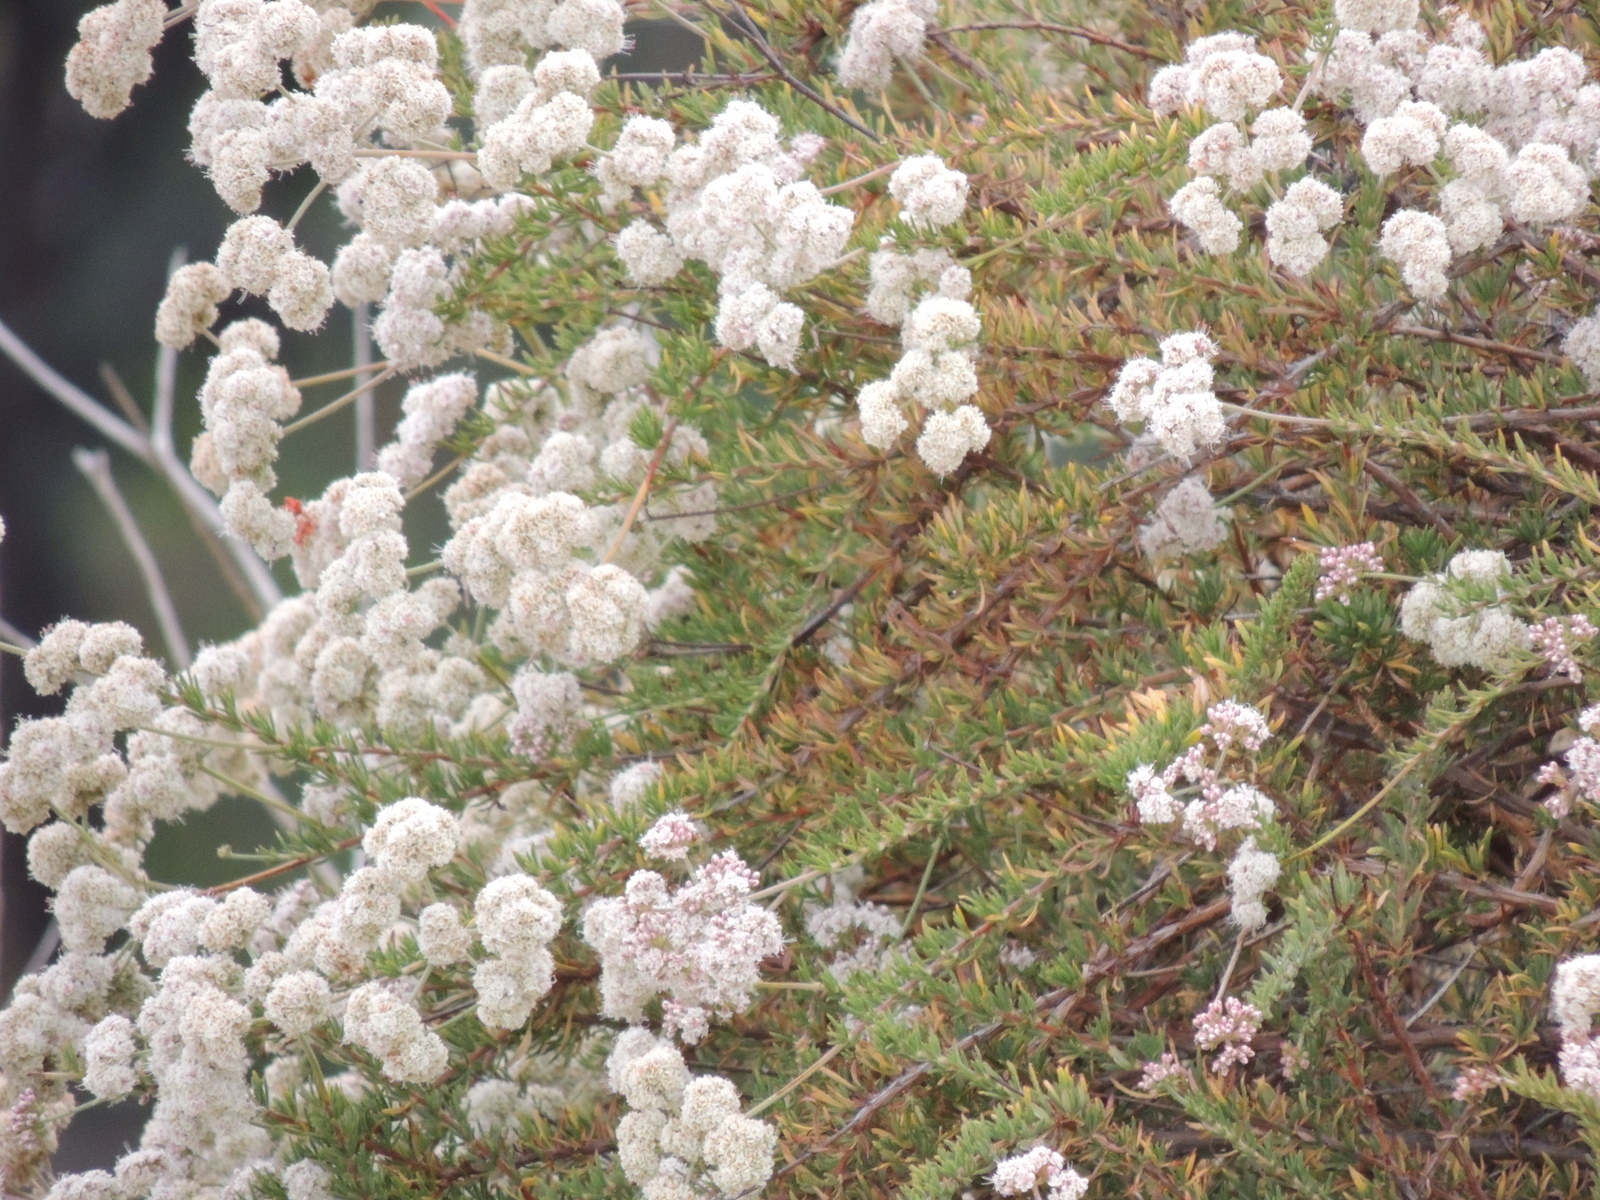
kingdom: Plantae
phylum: Tracheophyta
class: Magnoliopsida
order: Caryophyllales
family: Polygonaceae
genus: Eriogonum
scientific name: Eriogonum fasciculatum
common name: California wild buckwheat
